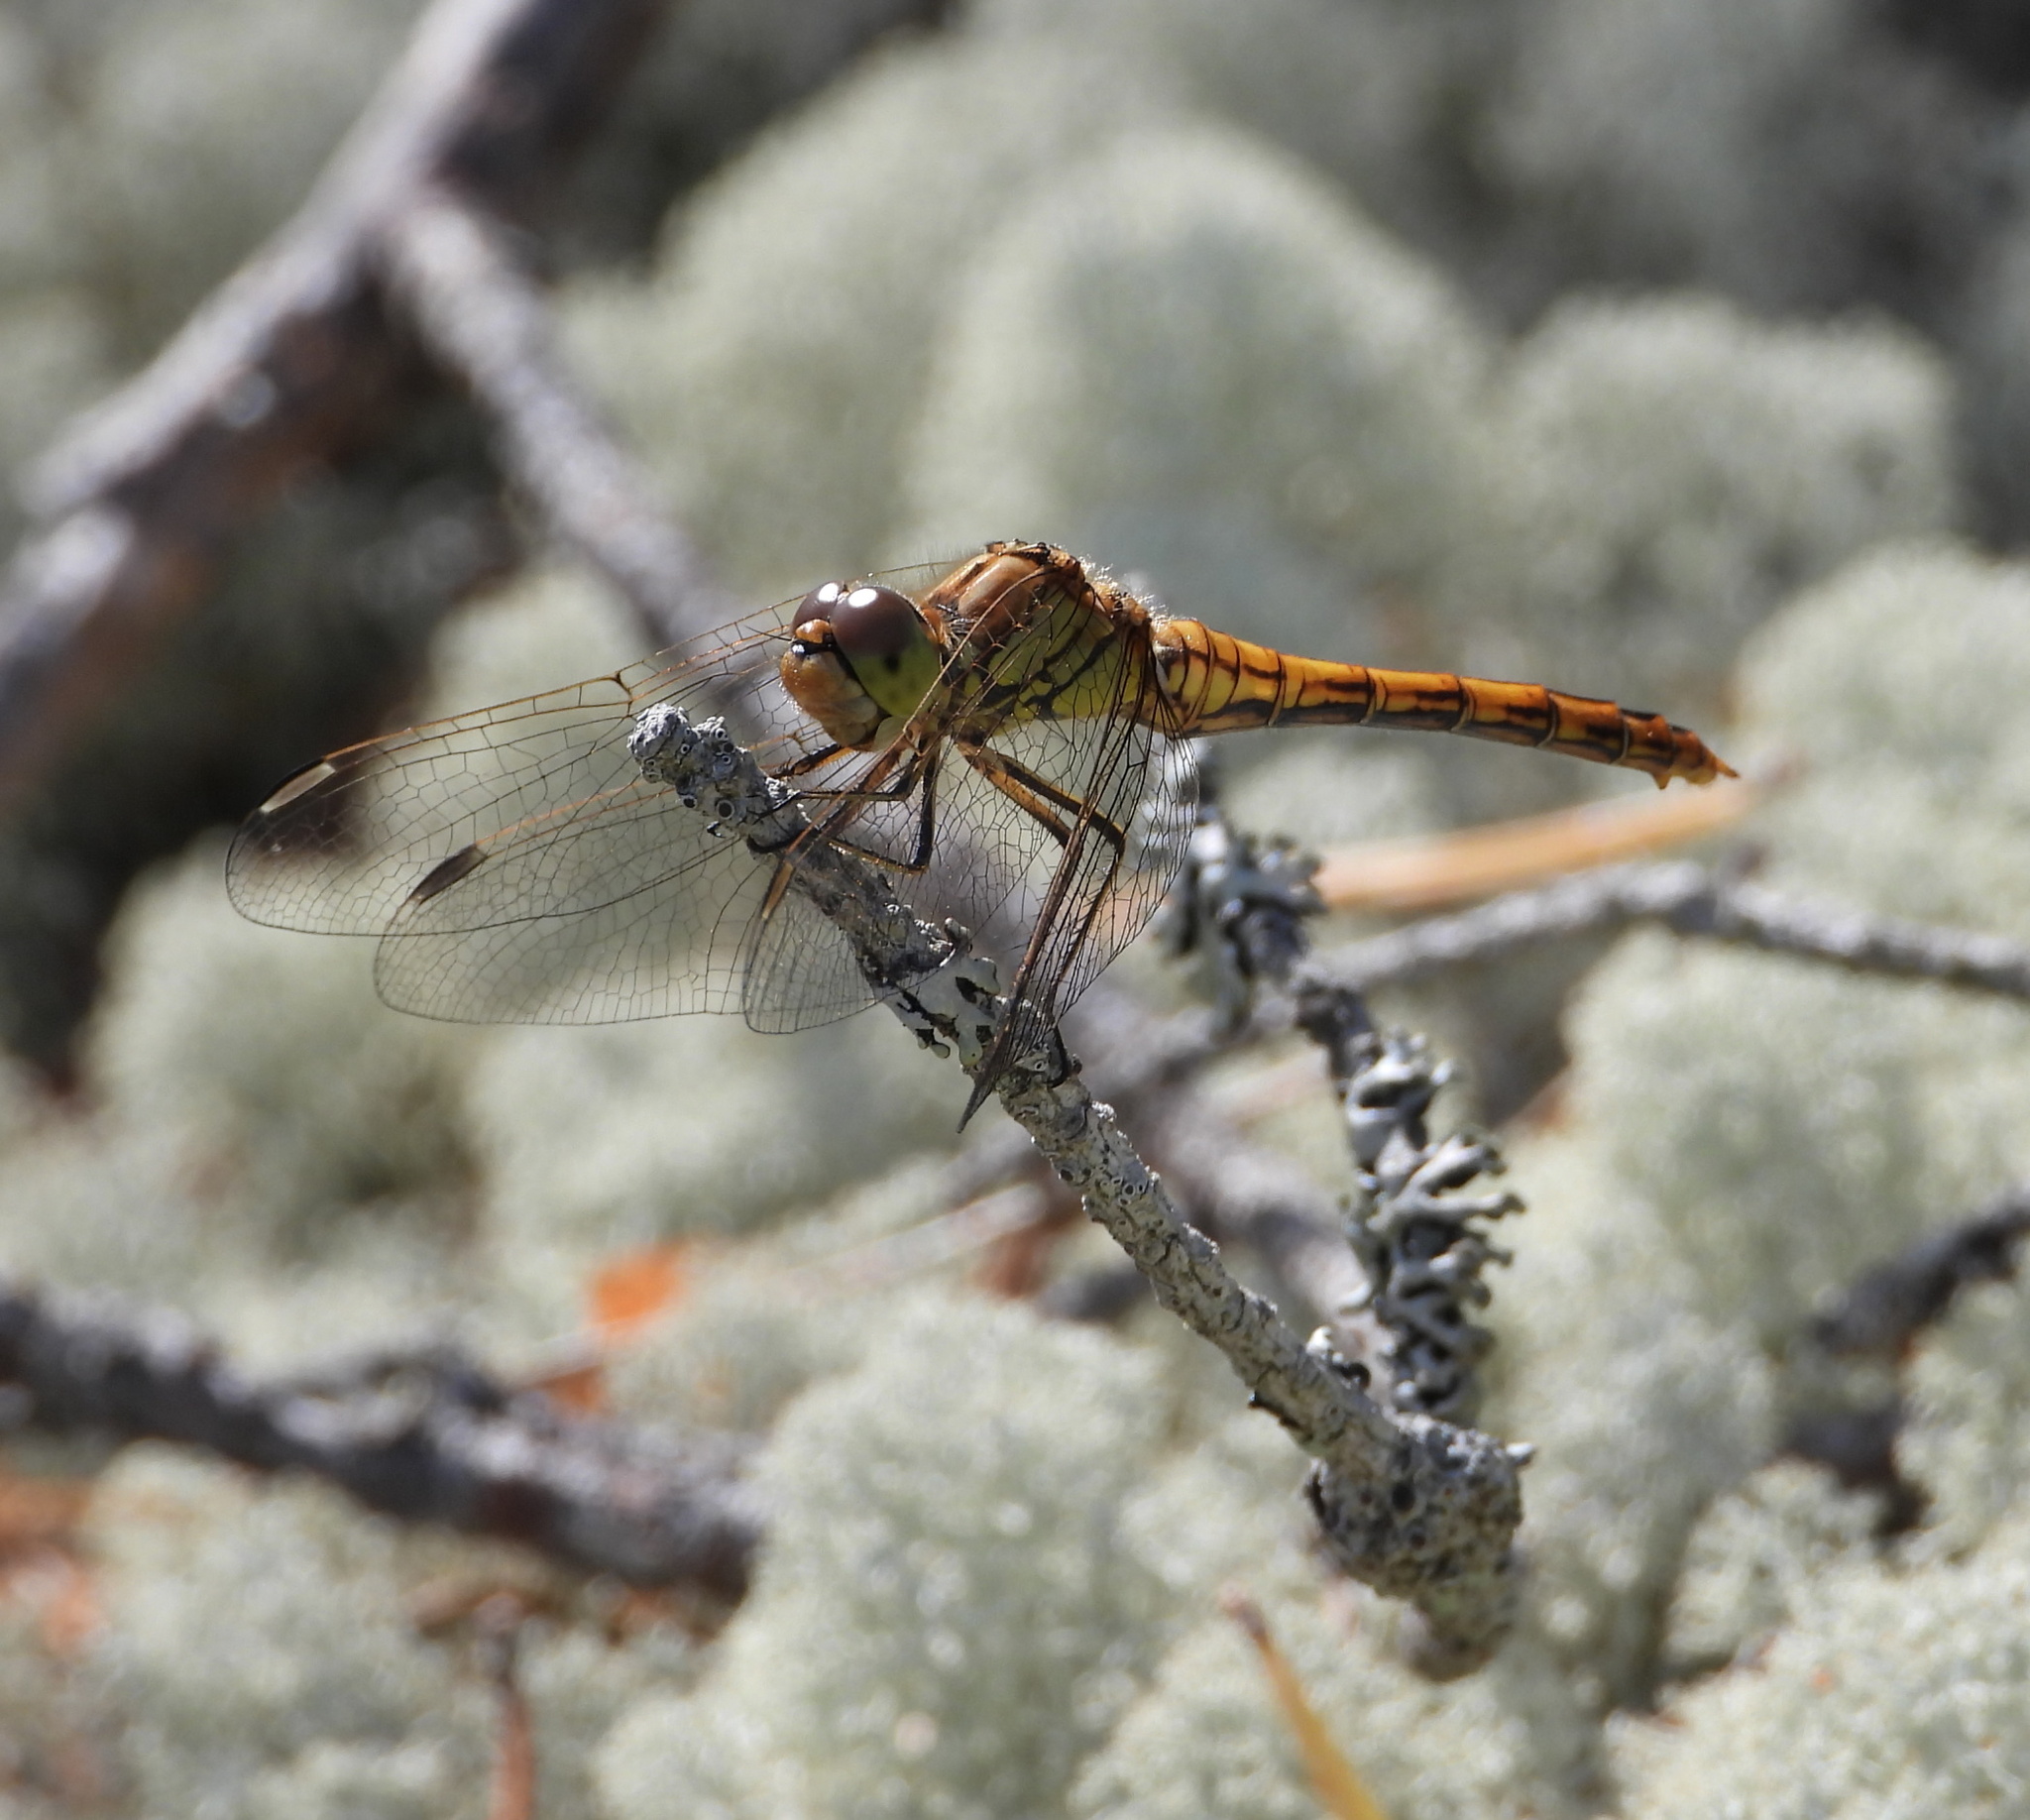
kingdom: Animalia
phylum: Arthropoda
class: Insecta
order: Odonata
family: Libellulidae
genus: Sympetrum
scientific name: Sympetrum vulgatum
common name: Vagrant darter
